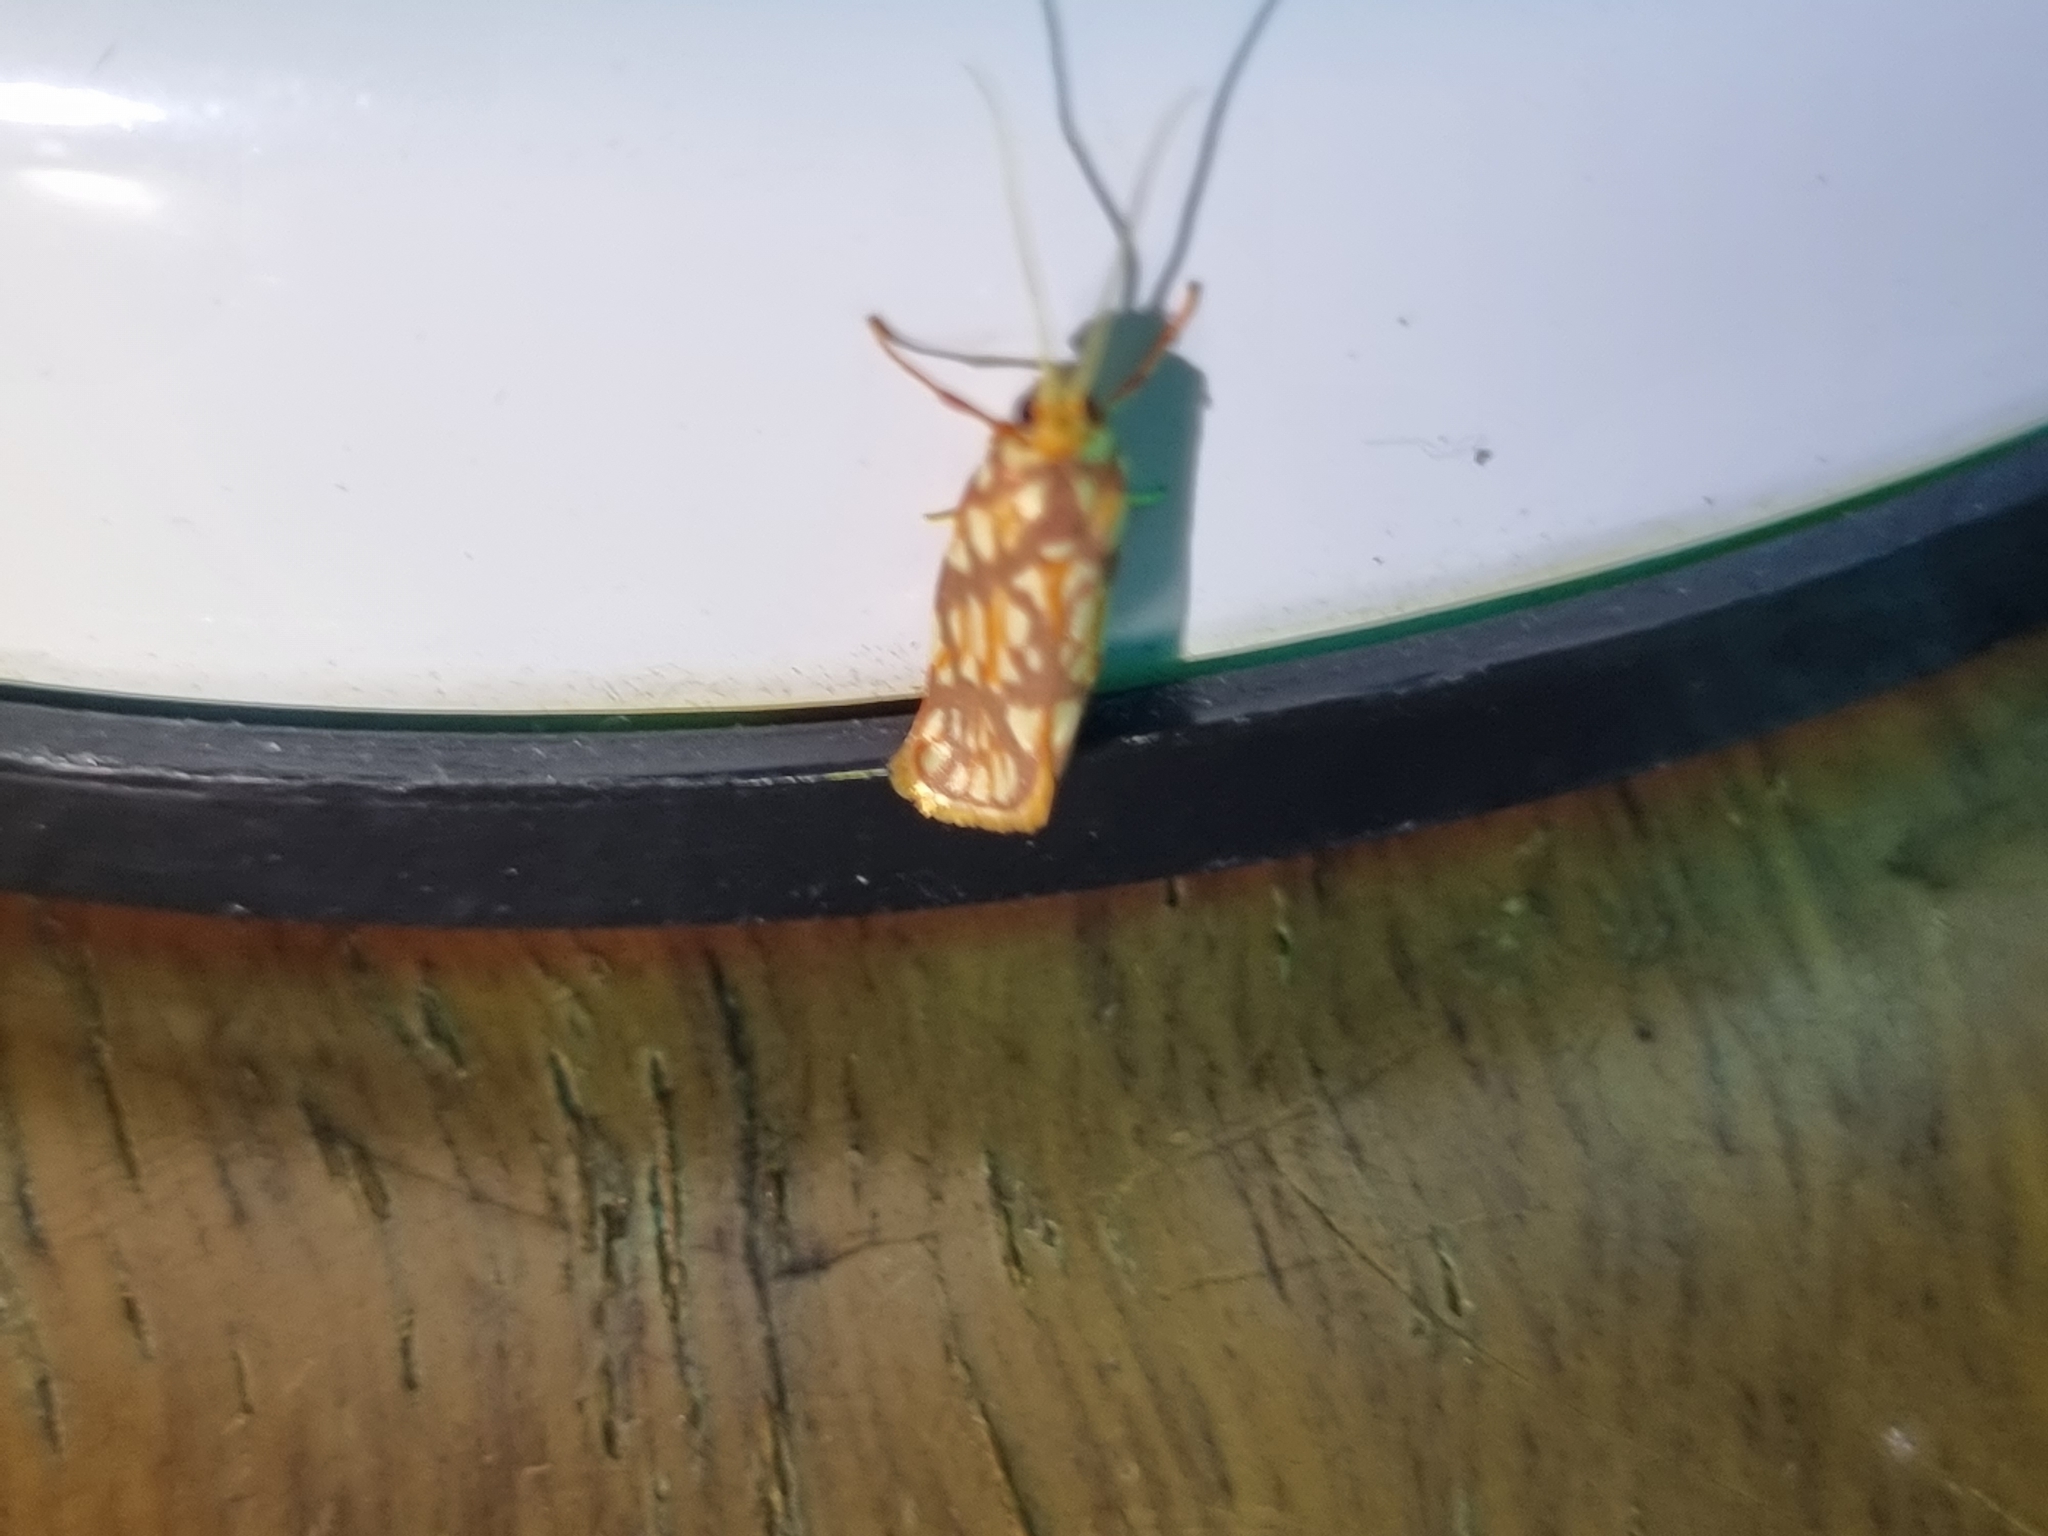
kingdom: Animalia
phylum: Arthropoda
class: Insecta
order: Lepidoptera
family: Lacturidae
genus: Lactura
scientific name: Lactura panopsia
